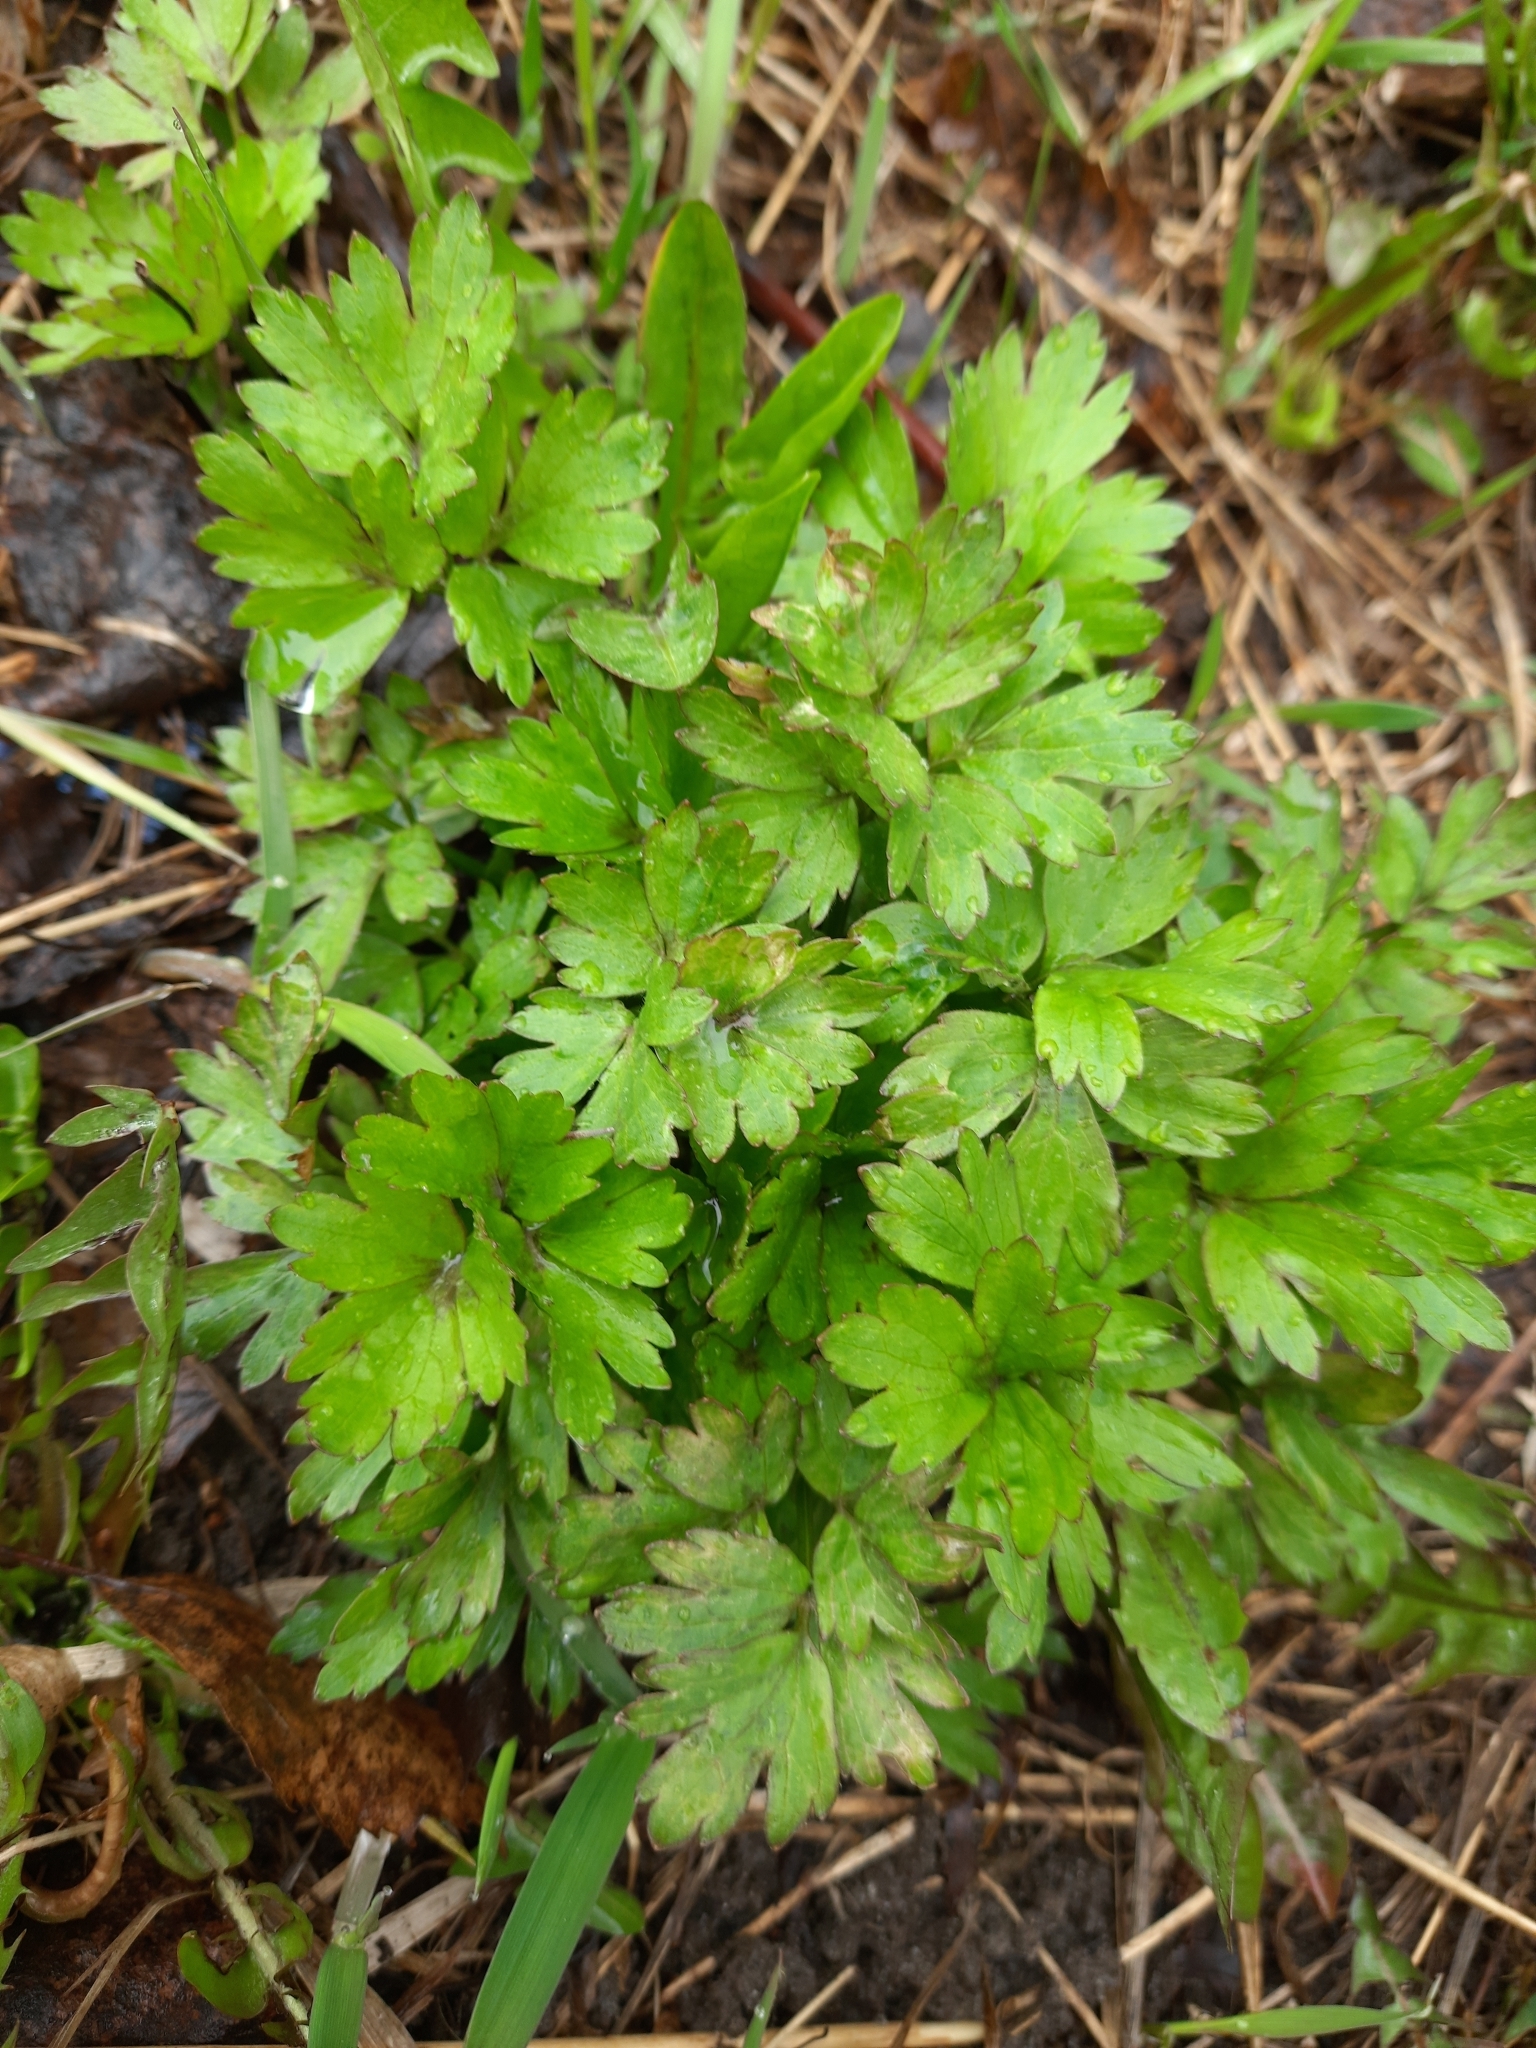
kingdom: Plantae
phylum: Tracheophyta
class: Magnoliopsida
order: Ranunculales
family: Ranunculaceae
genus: Ranunculus
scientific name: Ranunculus repens
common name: Creeping buttercup
